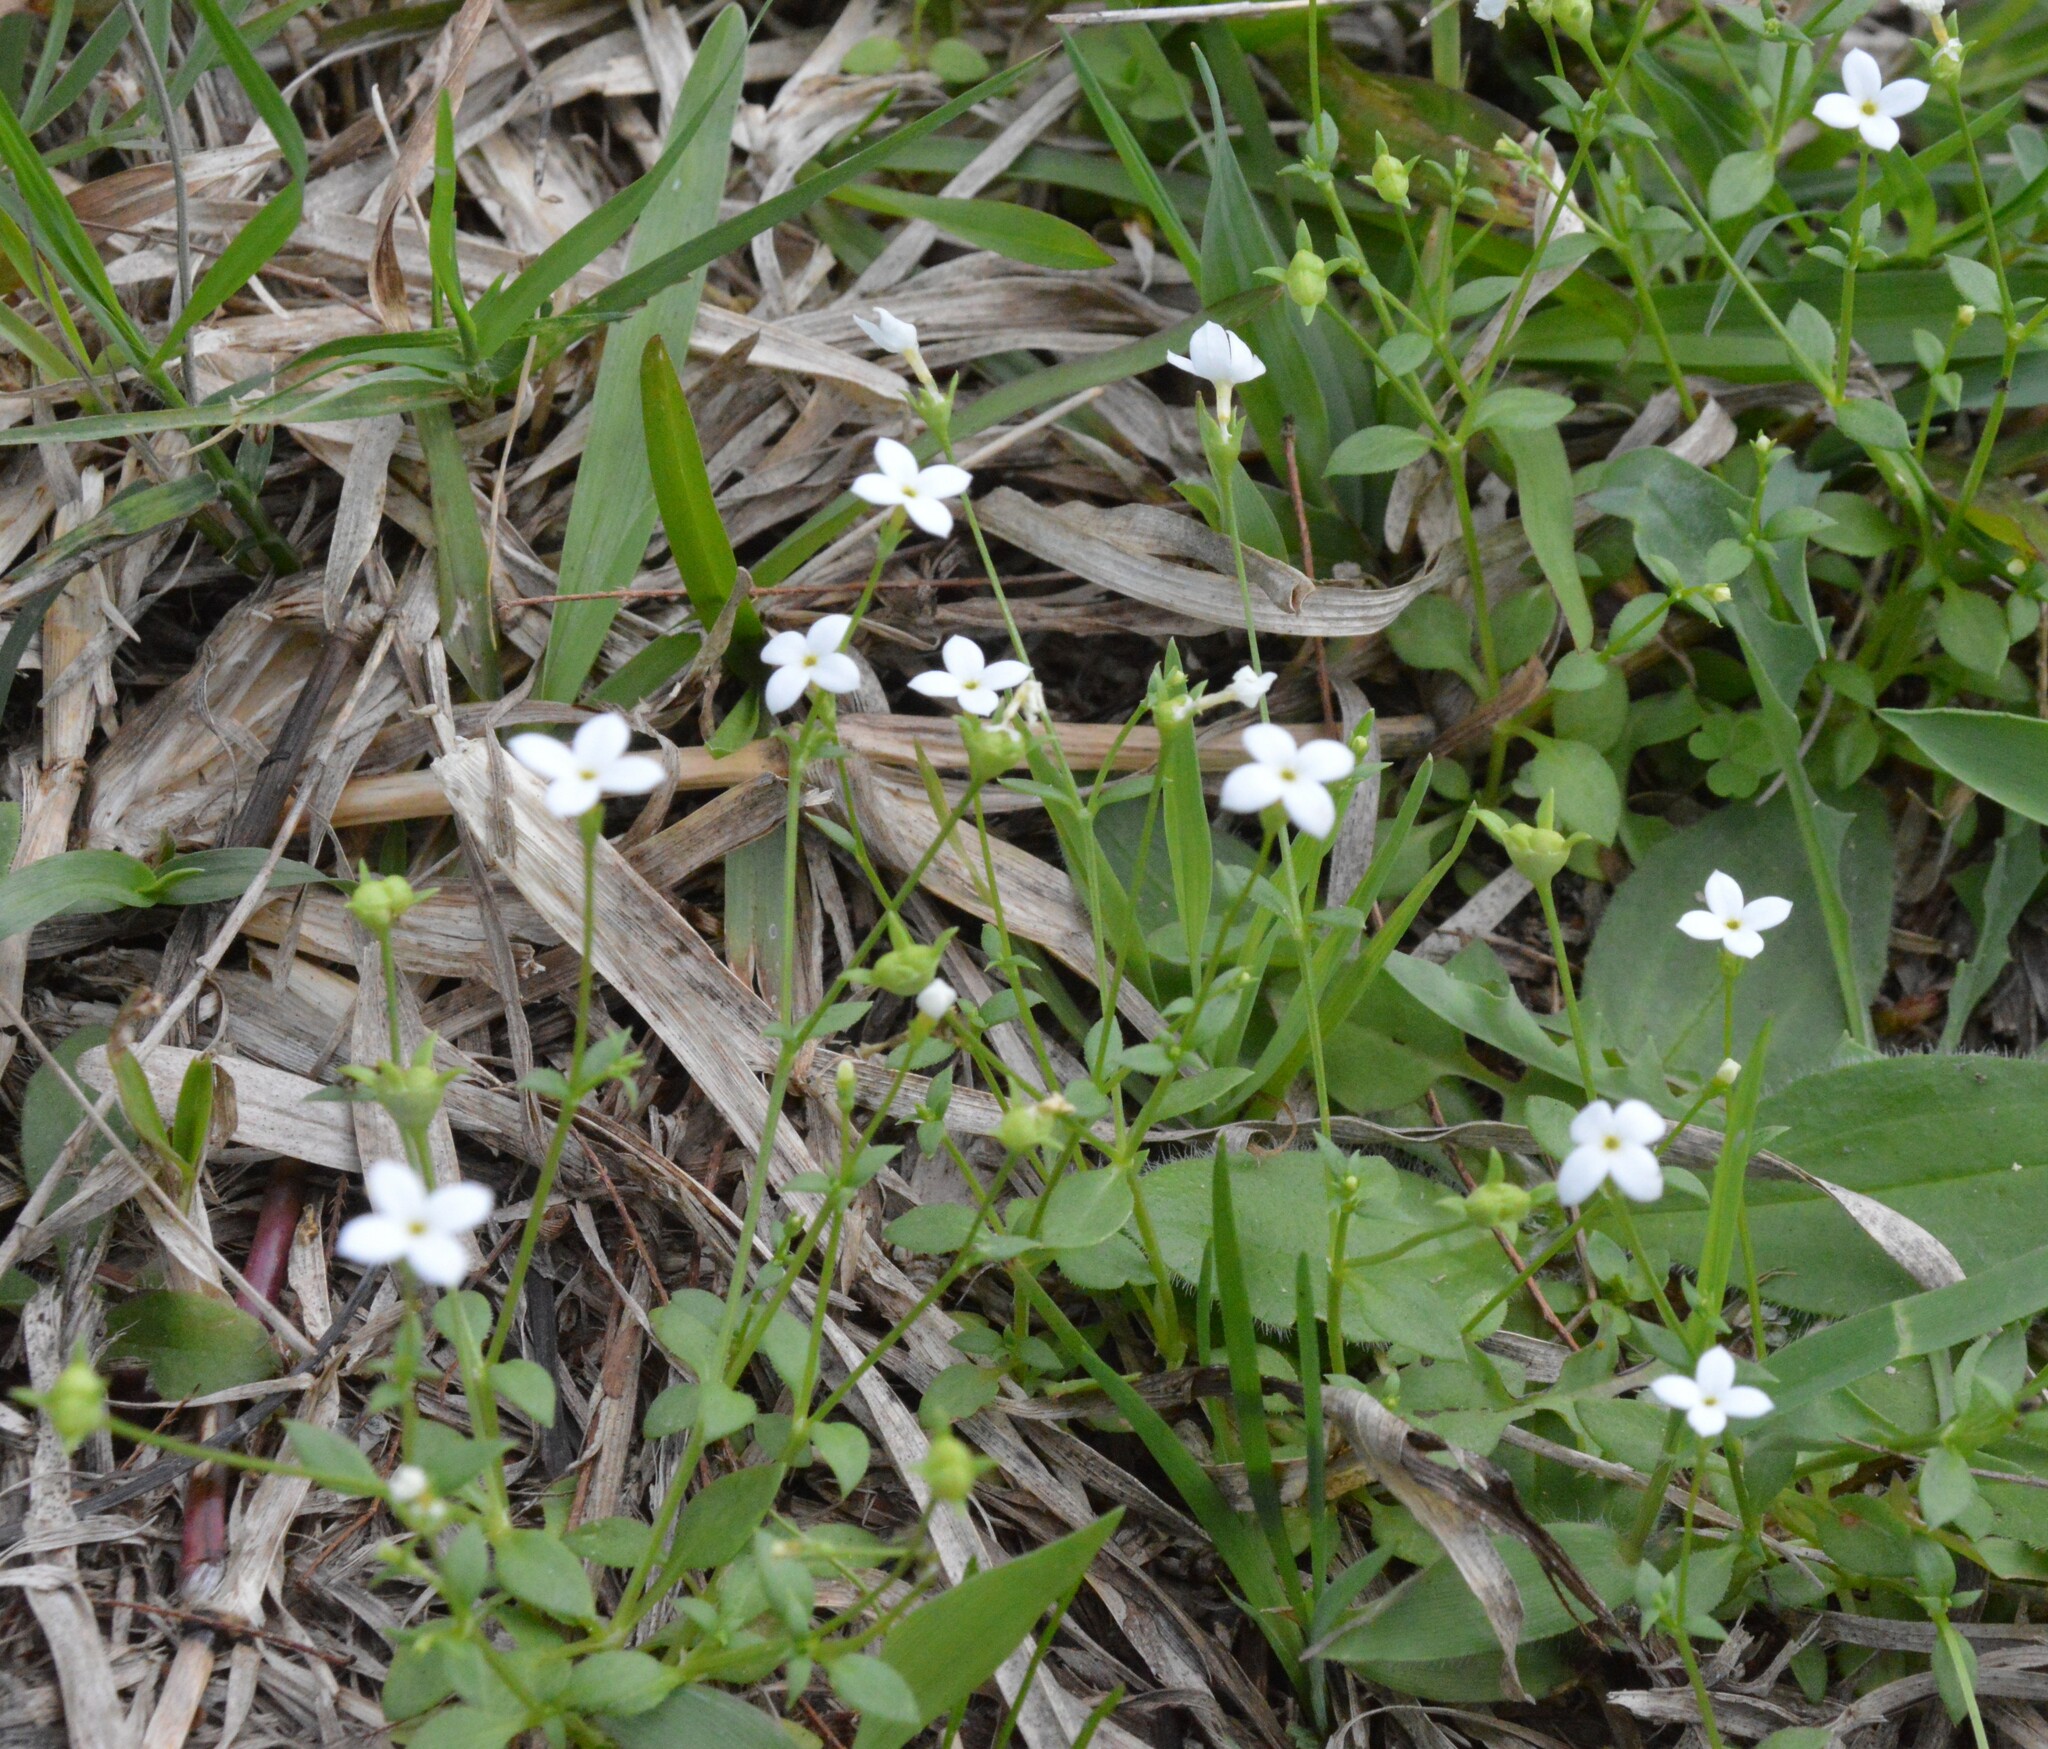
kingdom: Plantae
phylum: Tracheophyta
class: Magnoliopsida
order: Gentianales
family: Rubiaceae
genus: Houstonia
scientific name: Houstonia pusilla
